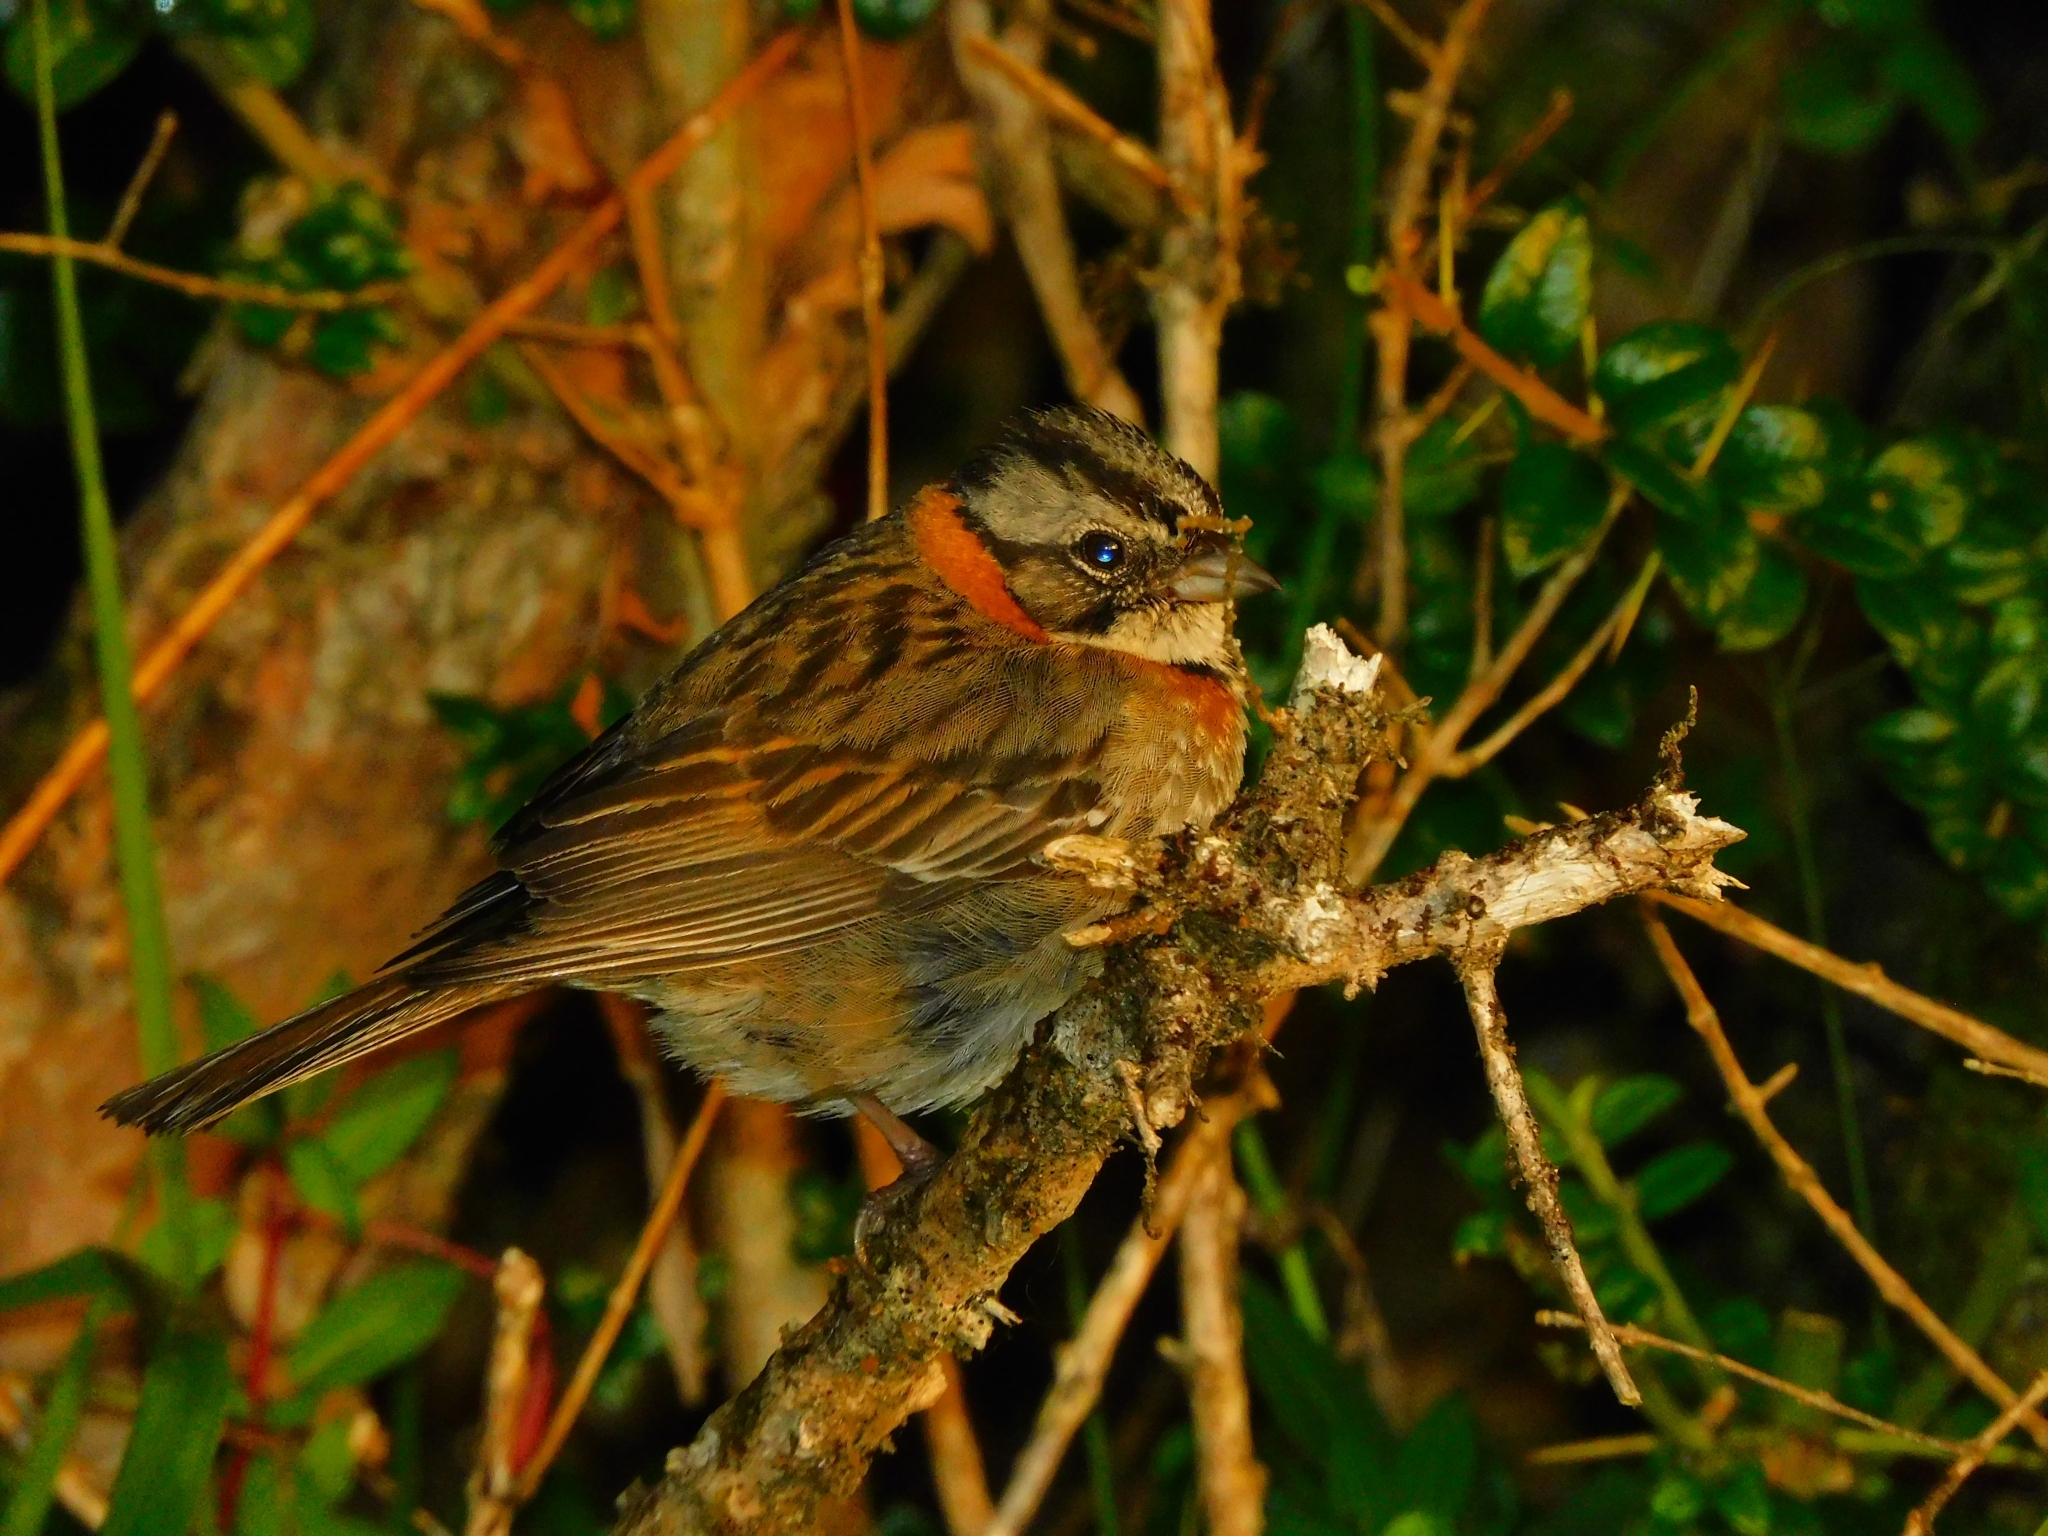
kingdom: Animalia
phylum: Chordata
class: Aves
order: Passeriformes
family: Passerellidae
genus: Zonotrichia
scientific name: Zonotrichia capensis
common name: Rufous-collared sparrow
